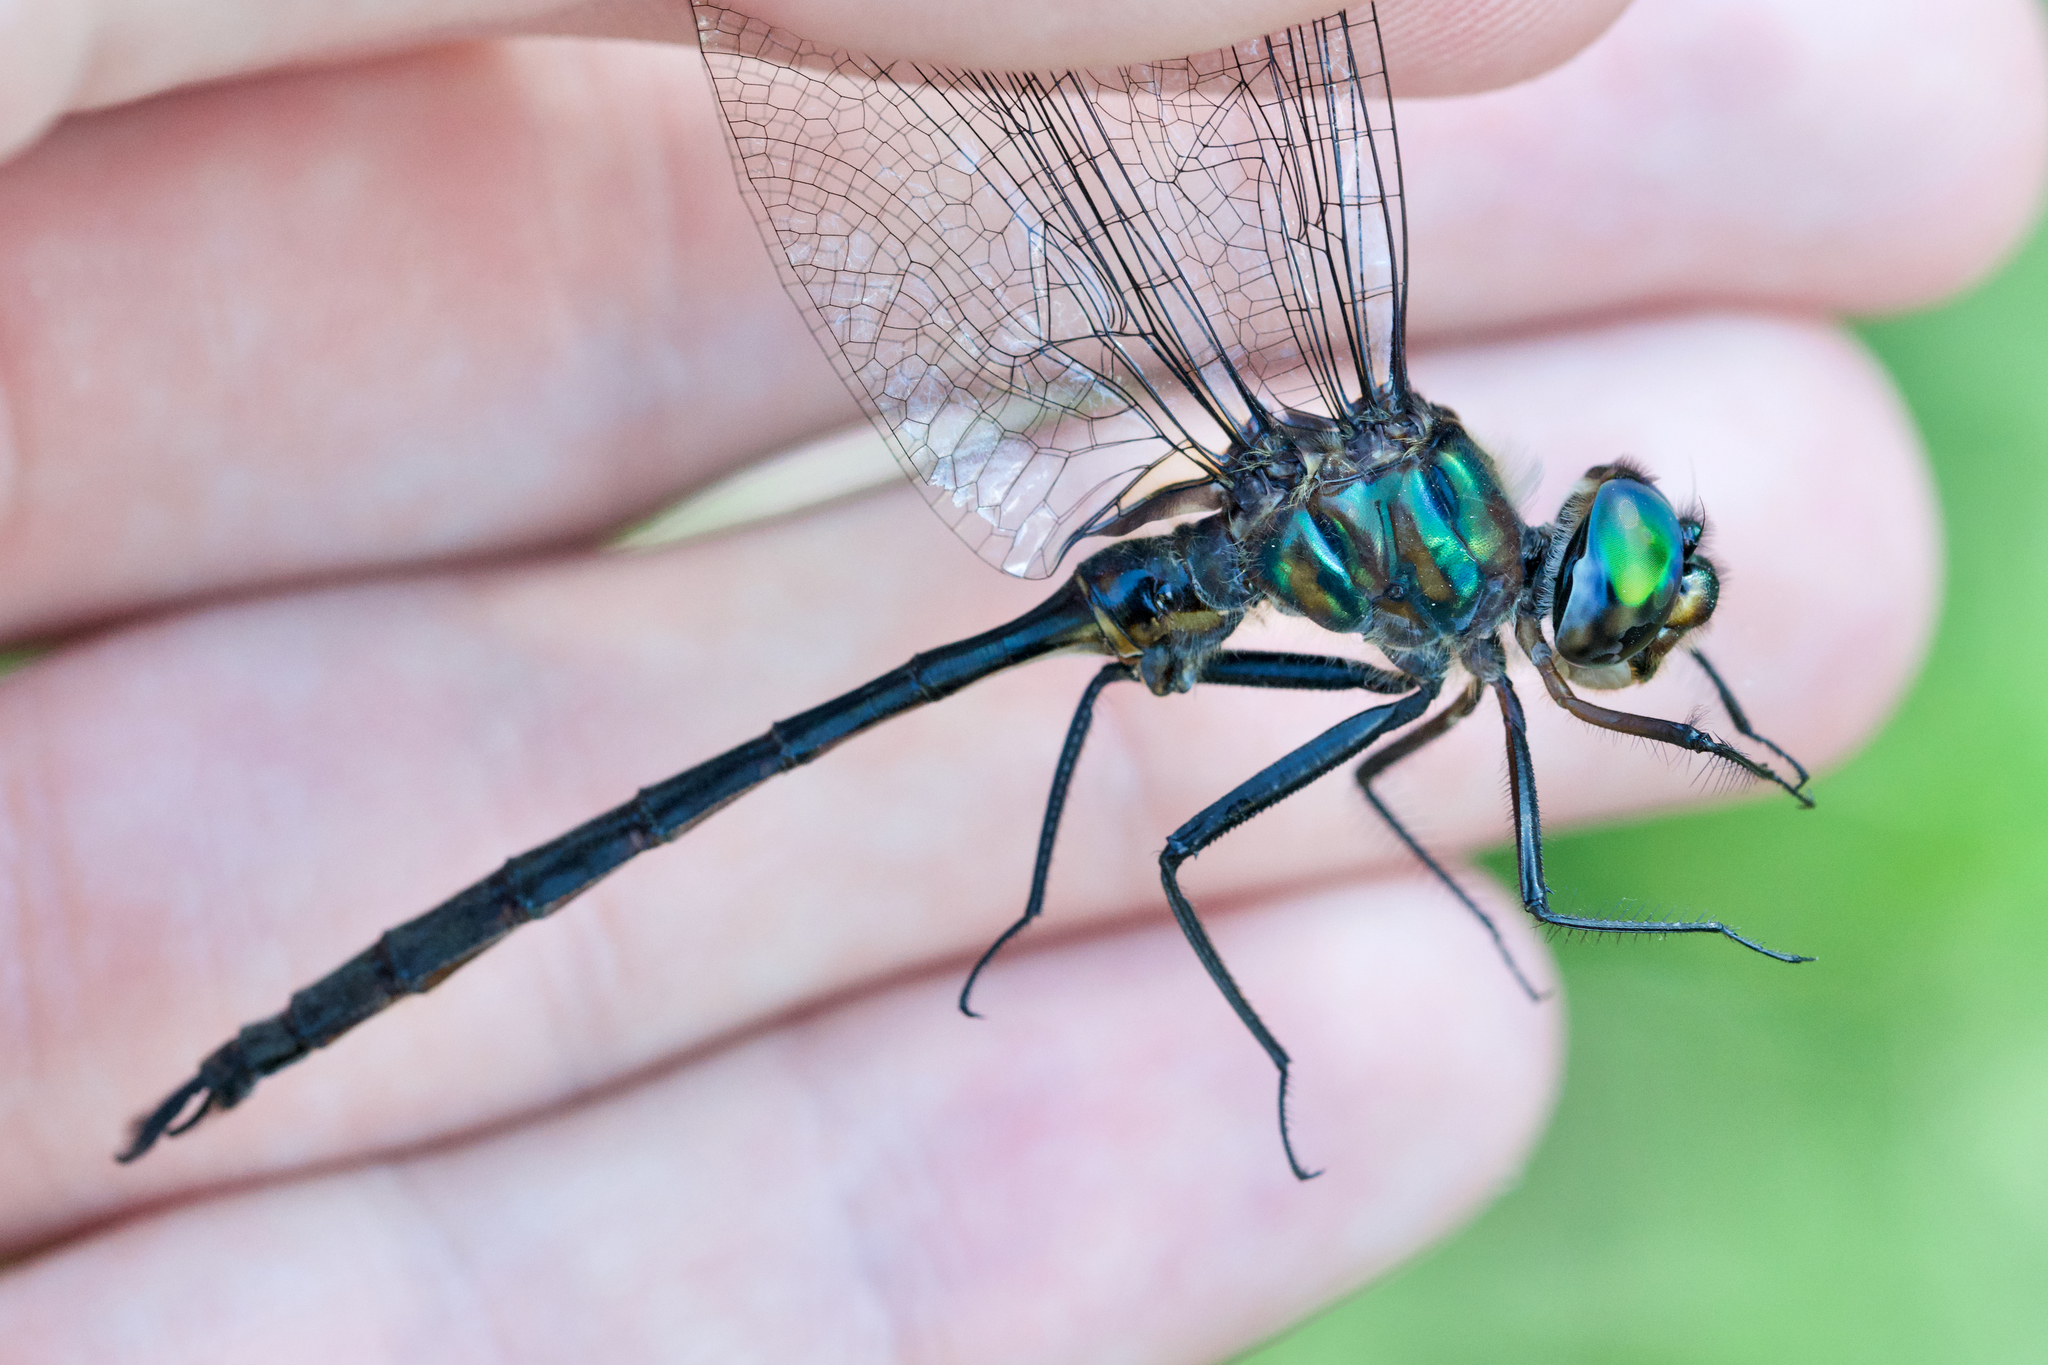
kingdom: Animalia
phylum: Arthropoda
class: Insecta
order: Odonata
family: Corduliidae
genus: Somatochlora
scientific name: Somatochlora williamsoni
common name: Williamson's emerald
